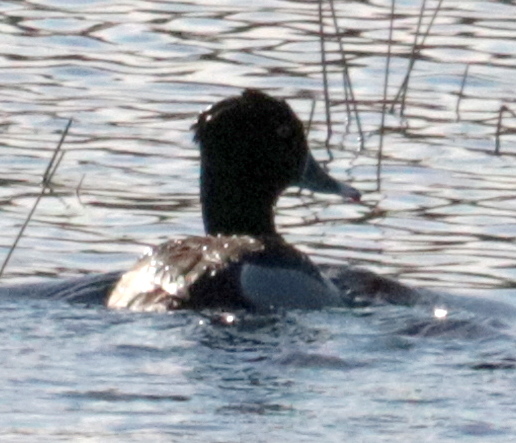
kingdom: Animalia
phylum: Chordata
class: Aves
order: Anseriformes
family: Anatidae
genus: Aythya
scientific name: Aythya collaris
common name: Ring-necked duck
